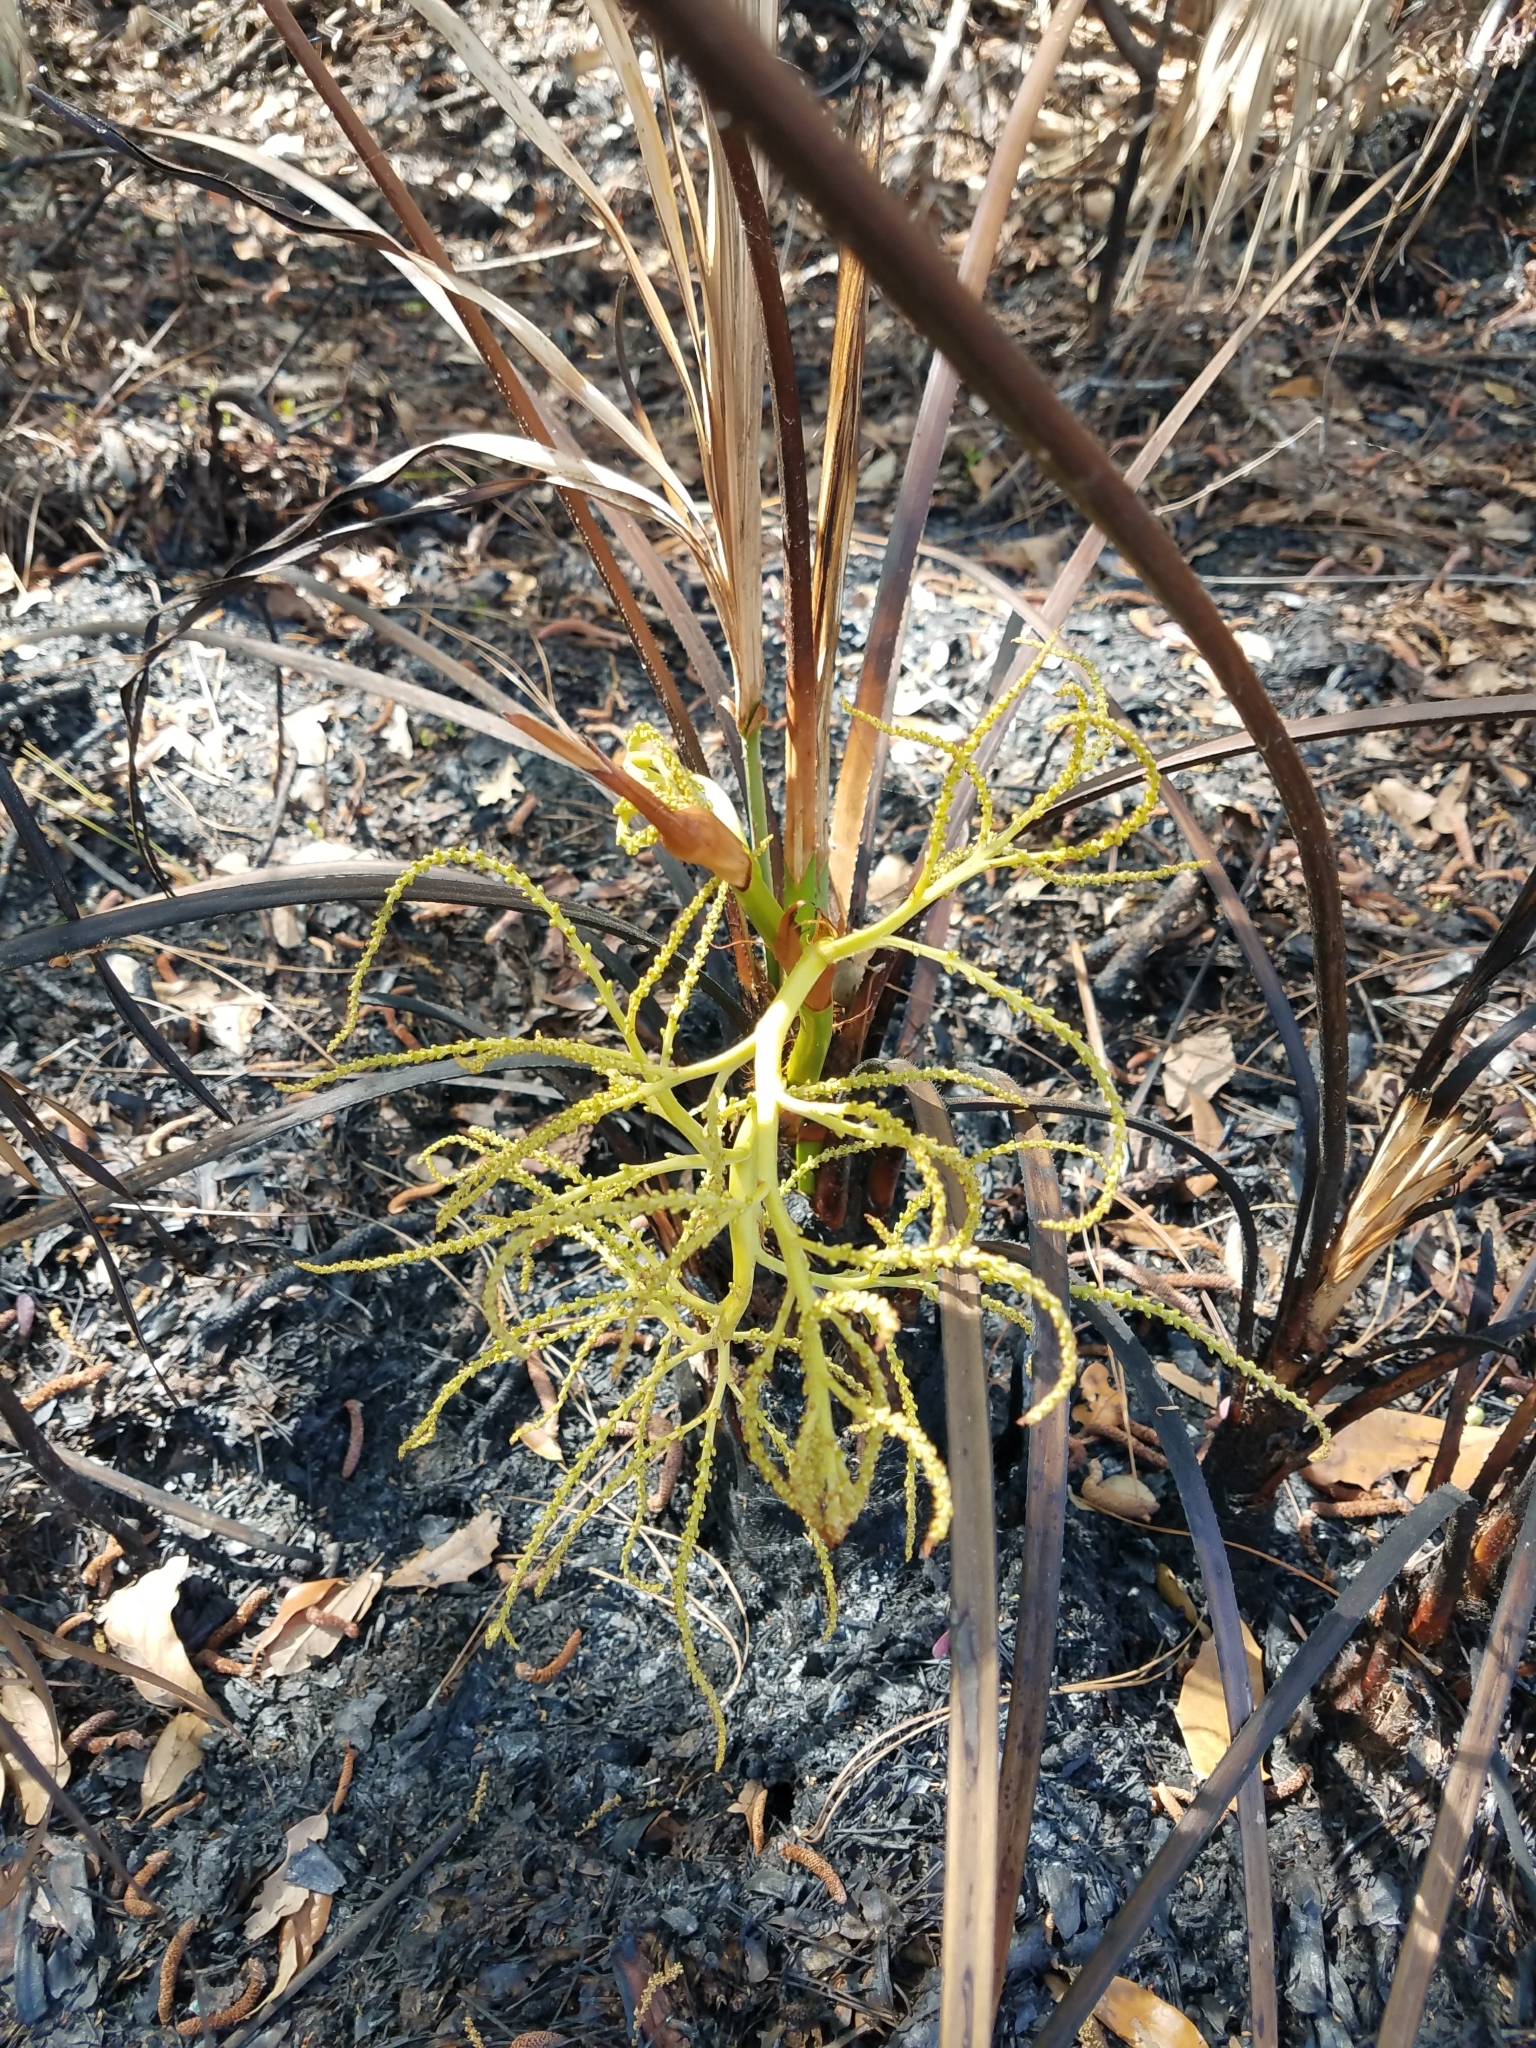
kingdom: Plantae
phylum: Tracheophyta
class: Liliopsida
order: Arecales
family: Arecaceae
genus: Serenoa
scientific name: Serenoa repens
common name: Saw-palmetto
